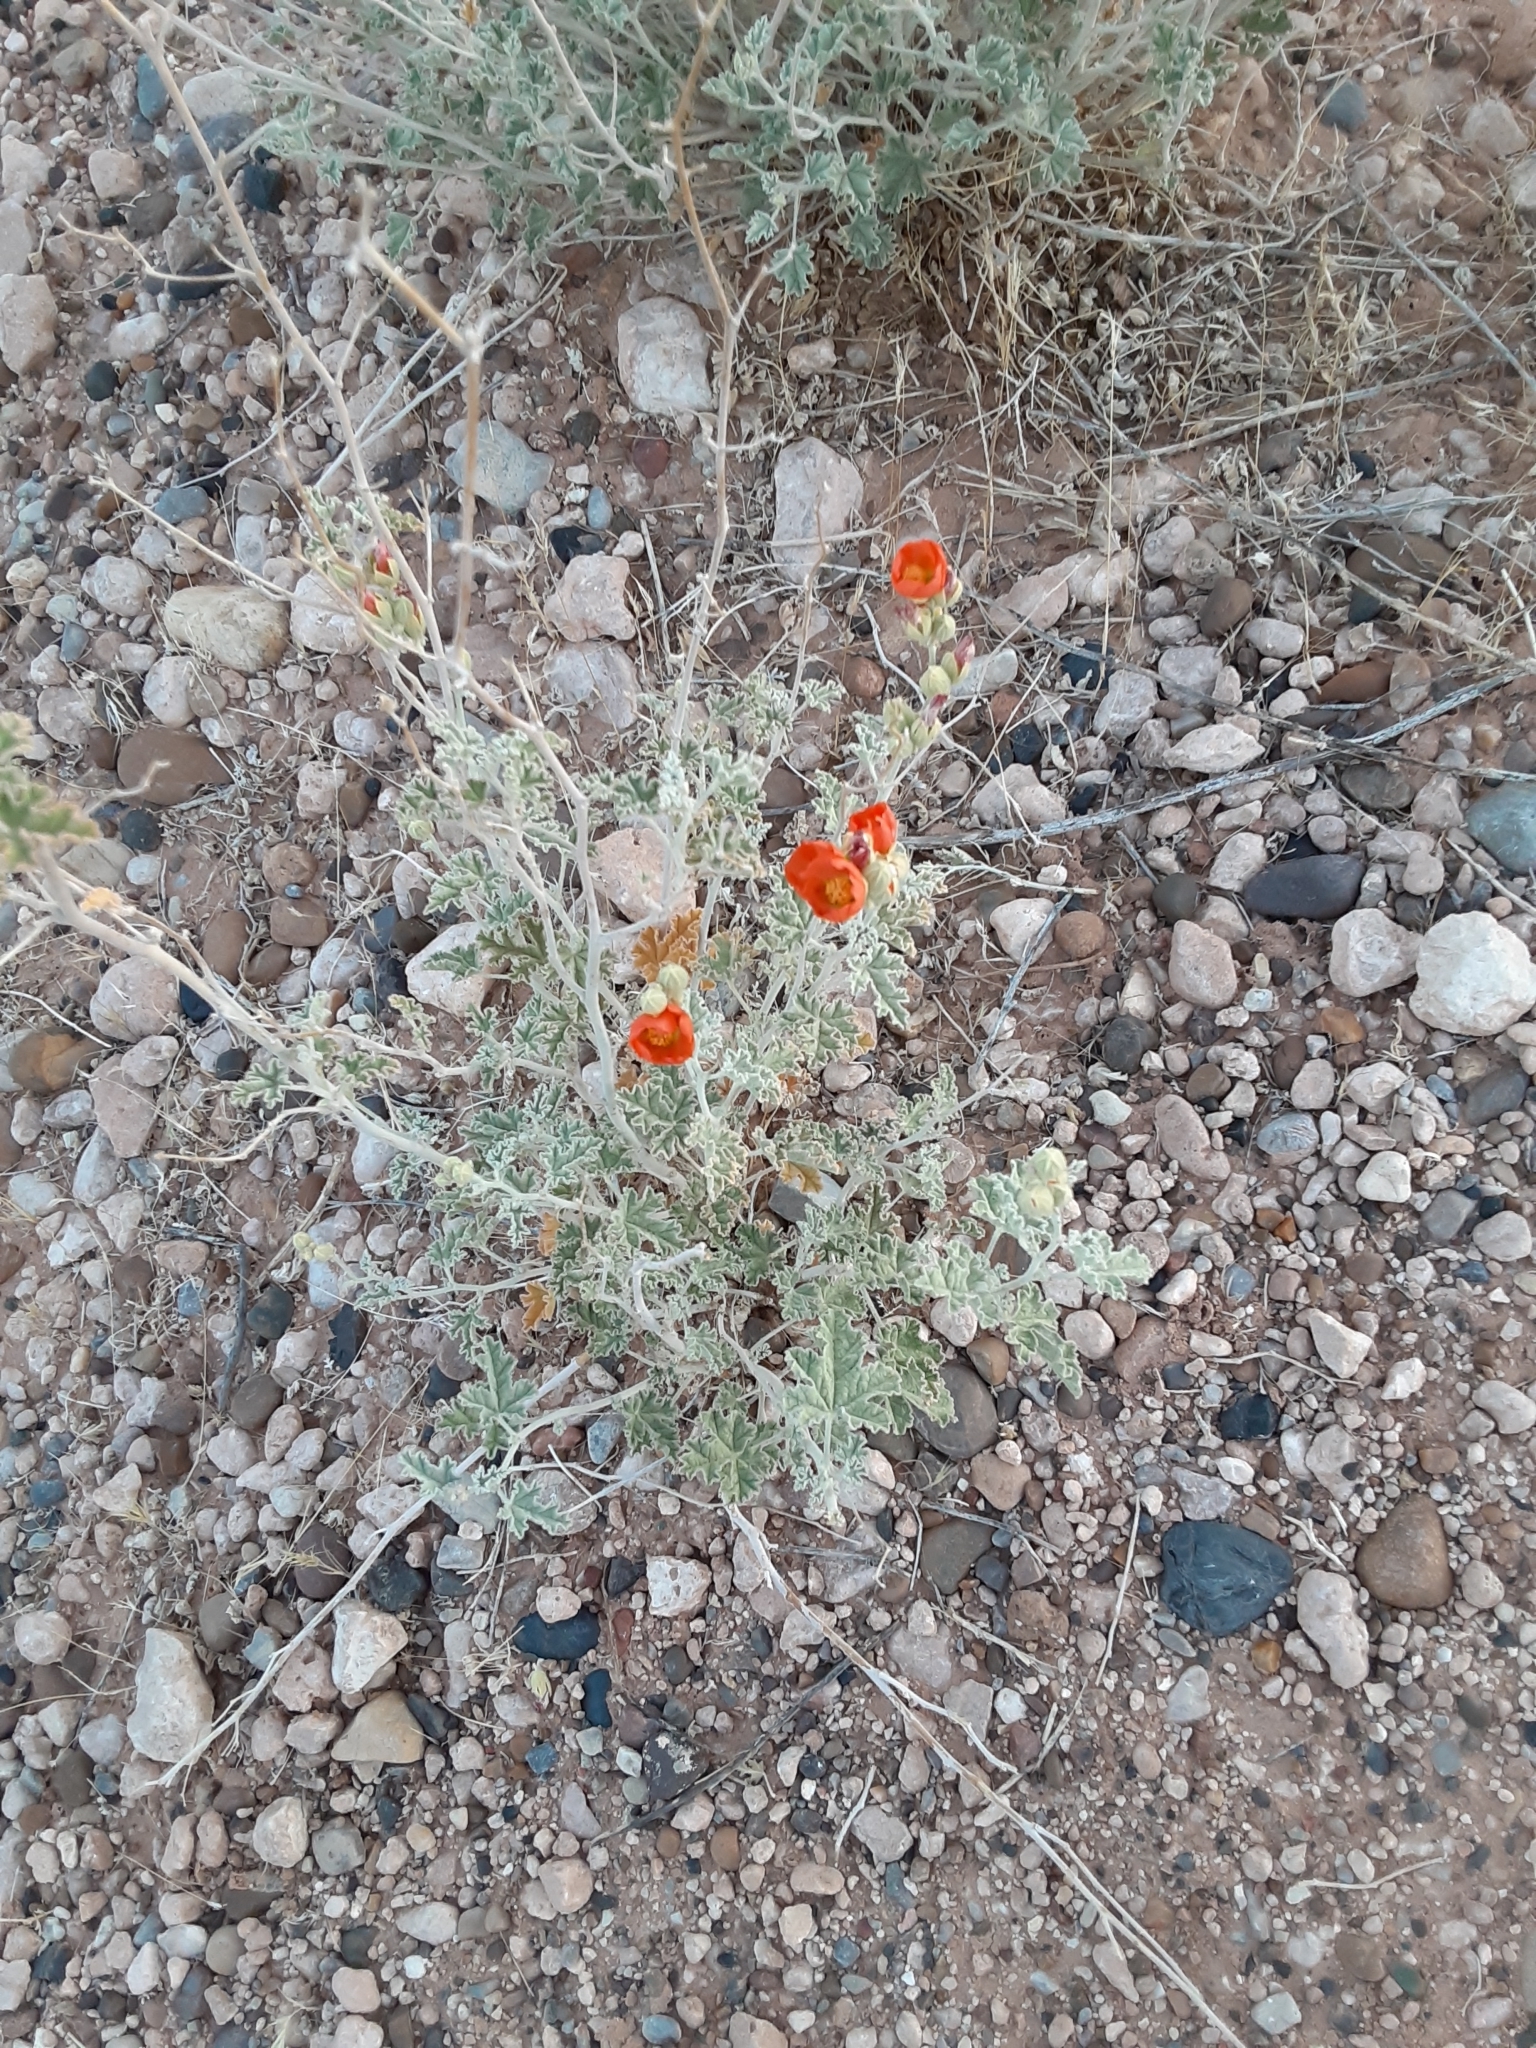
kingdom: Plantae
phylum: Tracheophyta
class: Magnoliopsida
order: Malvales
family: Malvaceae
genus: Sphaeralcea
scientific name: Sphaeralcea ambigua
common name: Apricot globe-mallow
